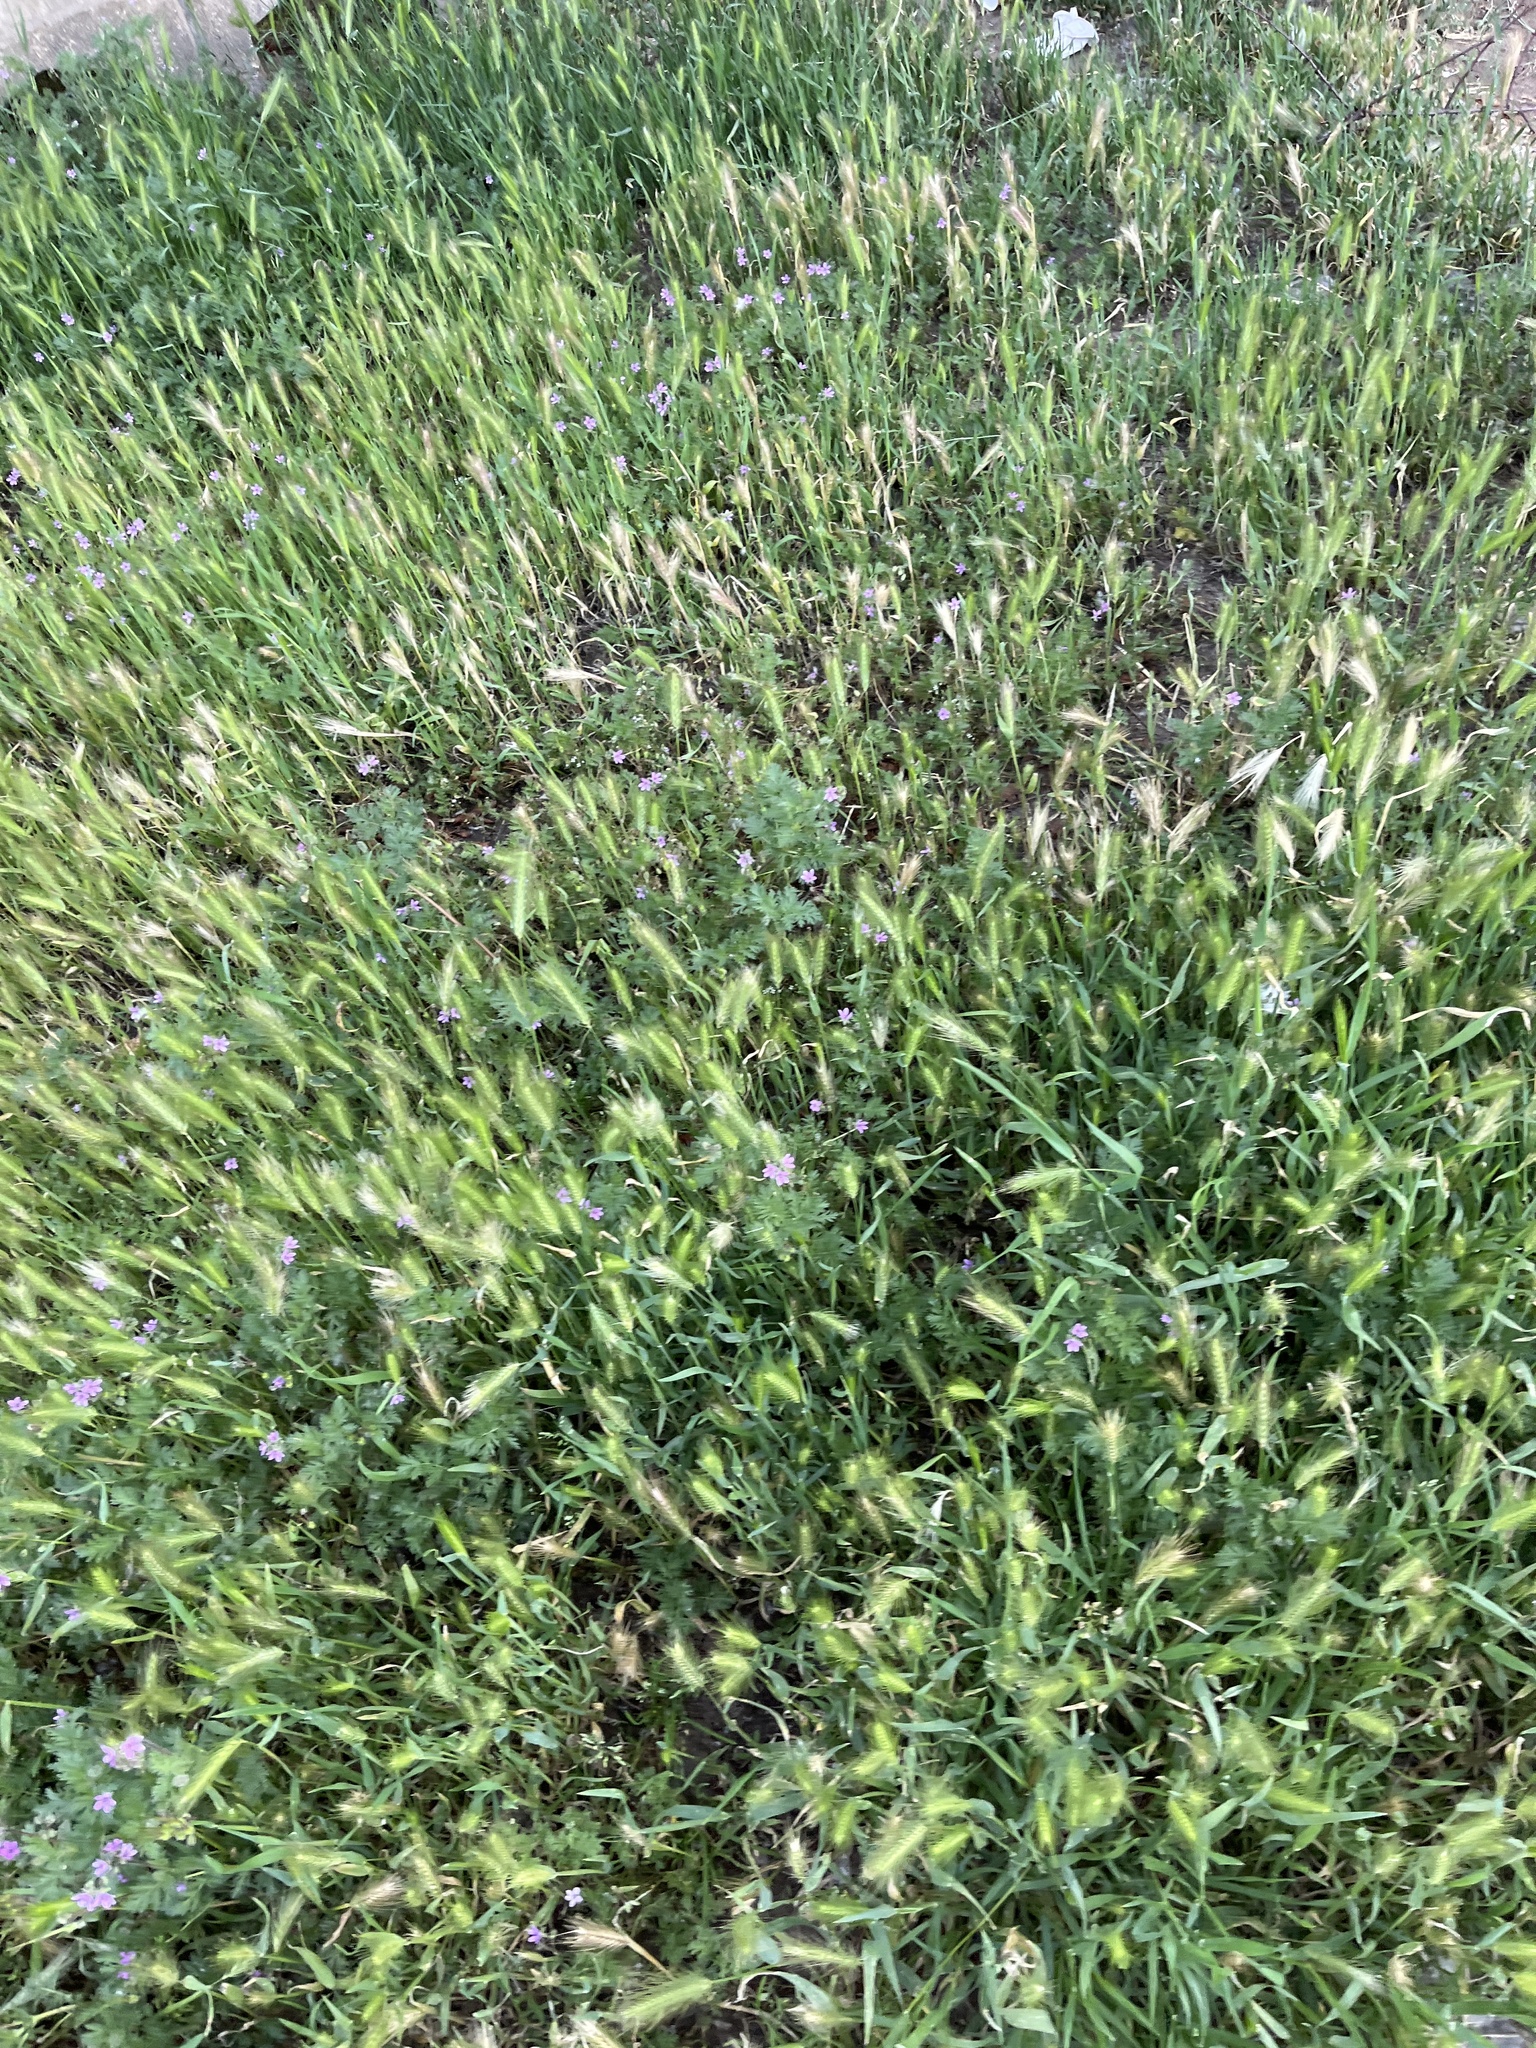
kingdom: Plantae
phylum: Tracheophyta
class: Liliopsida
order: Poales
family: Poaceae
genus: Hordeum
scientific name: Hordeum murinum
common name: Wall barley
